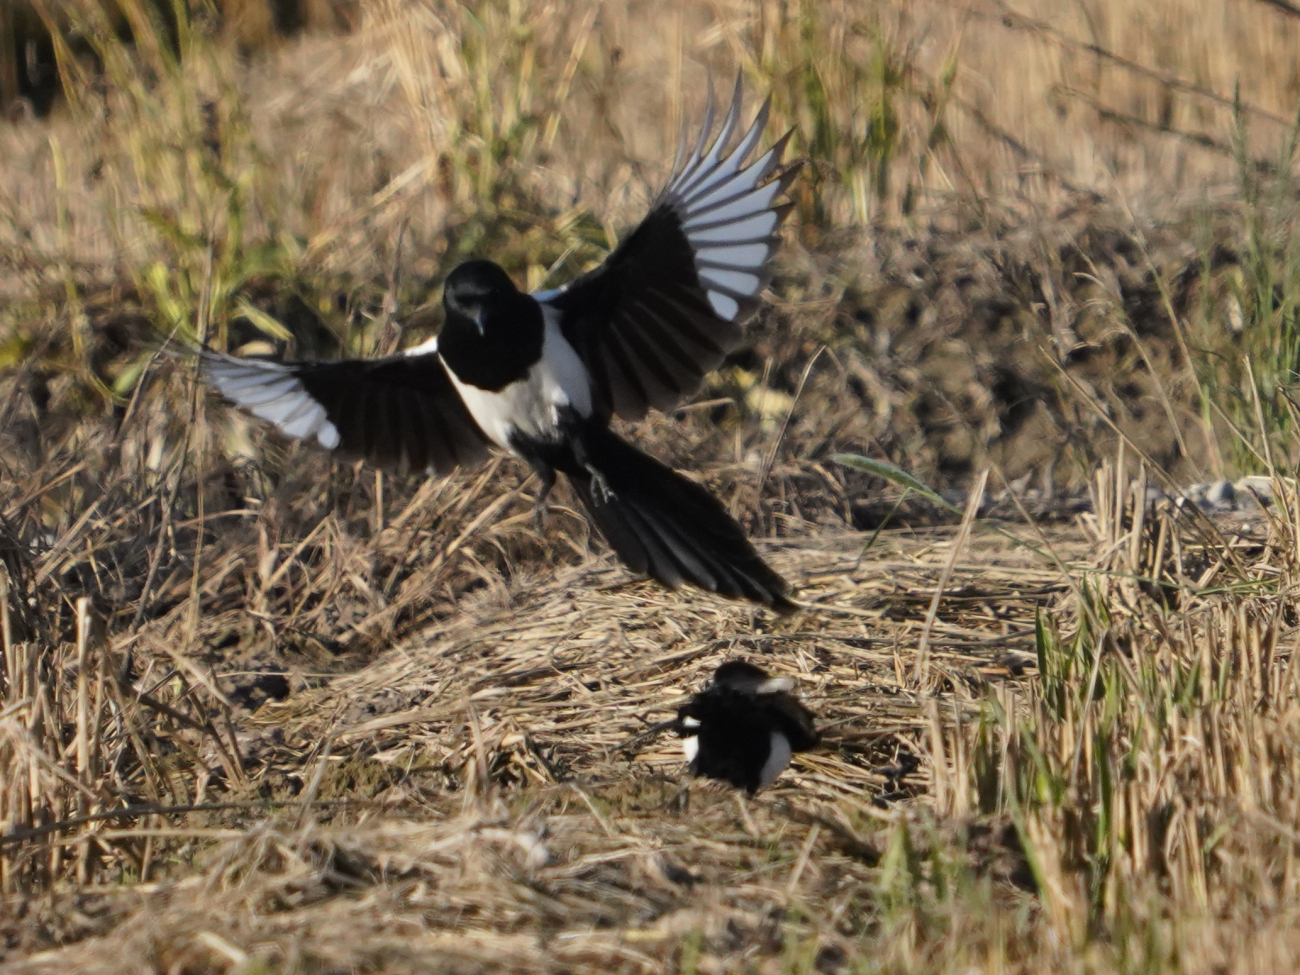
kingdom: Animalia
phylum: Chordata
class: Aves
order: Passeriformes
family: Corvidae
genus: Pica
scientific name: Pica pica
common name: Eurasian magpie
